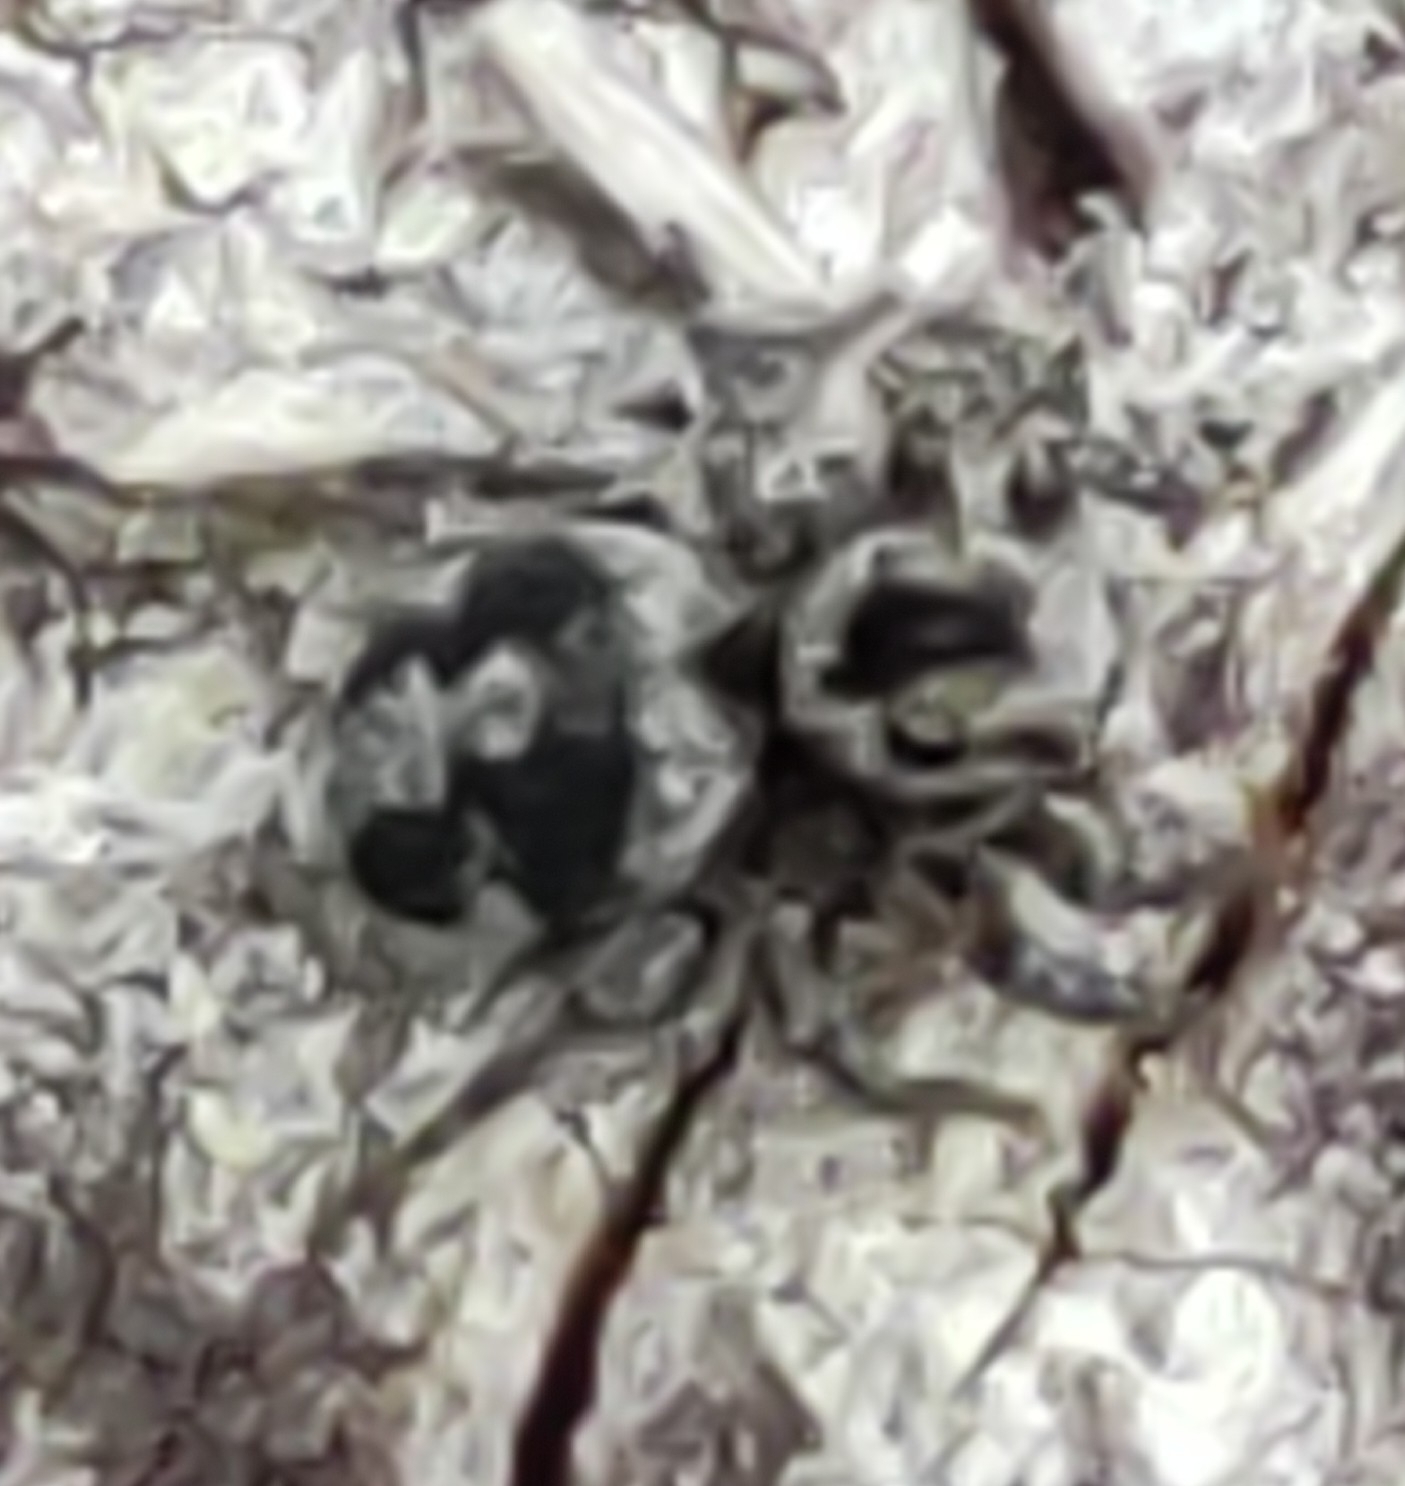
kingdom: Animalia
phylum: Arthropoda
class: Arachnida
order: Araneae
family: Salticidae
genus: Aelurillus
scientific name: Aelurillus v-insignitus
